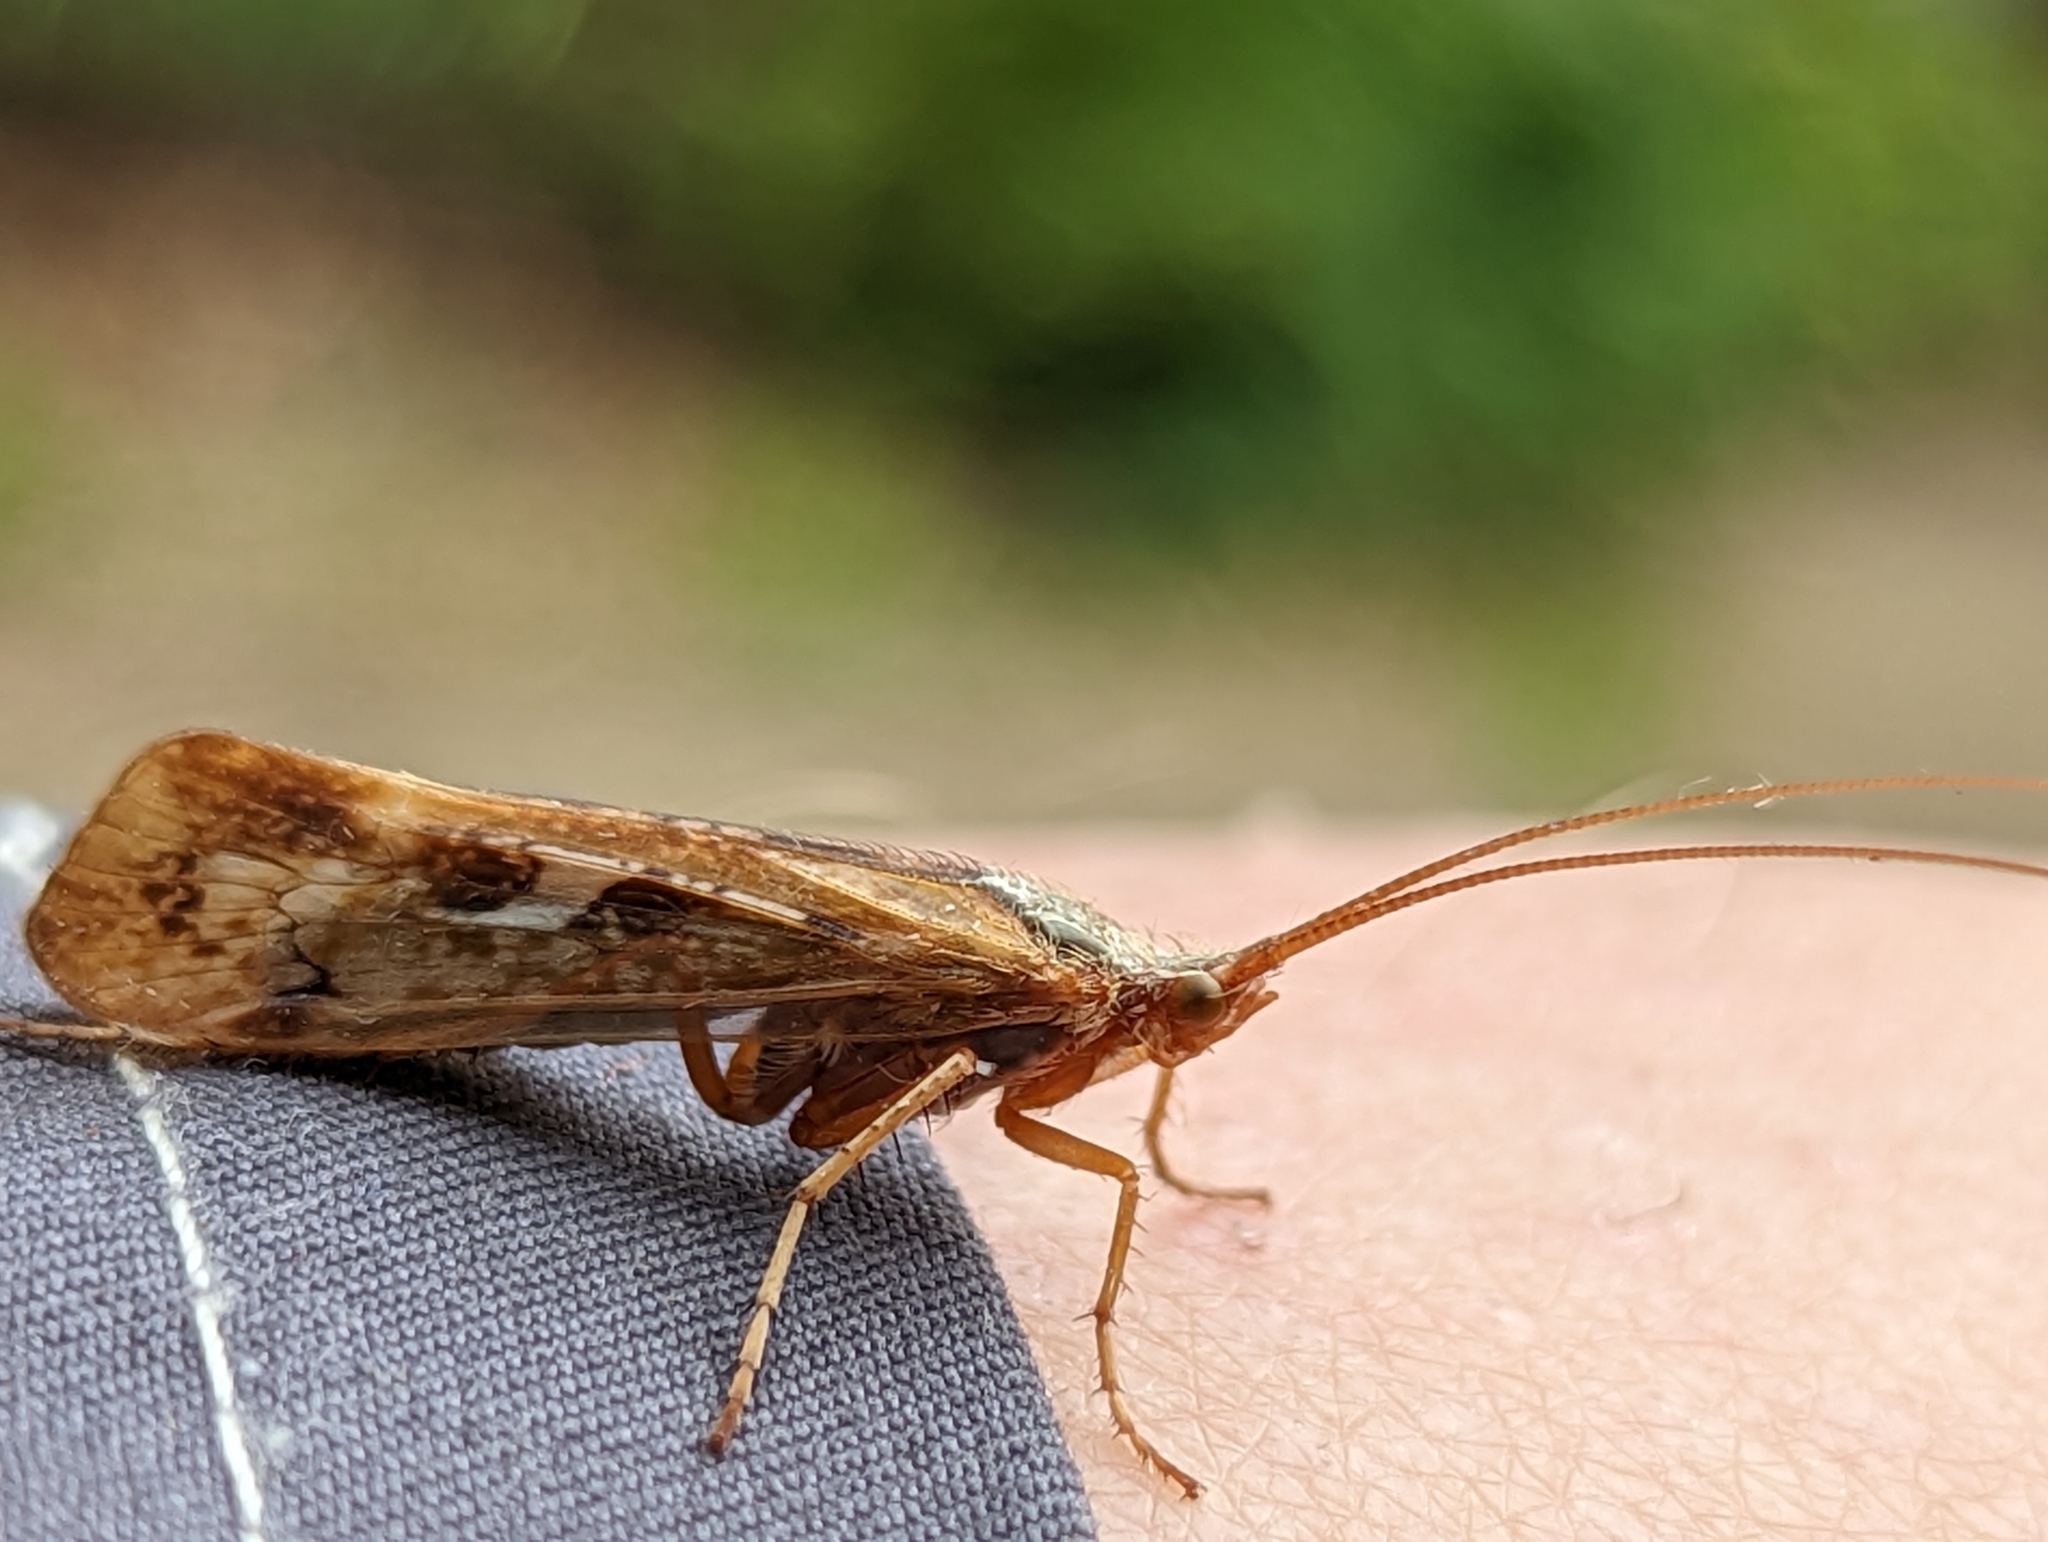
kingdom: Animalia
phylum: Arthropoda
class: Insecta
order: Trichoptera
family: Limnephilidae
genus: Limnephilus
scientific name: Limnephilus marmoratus
